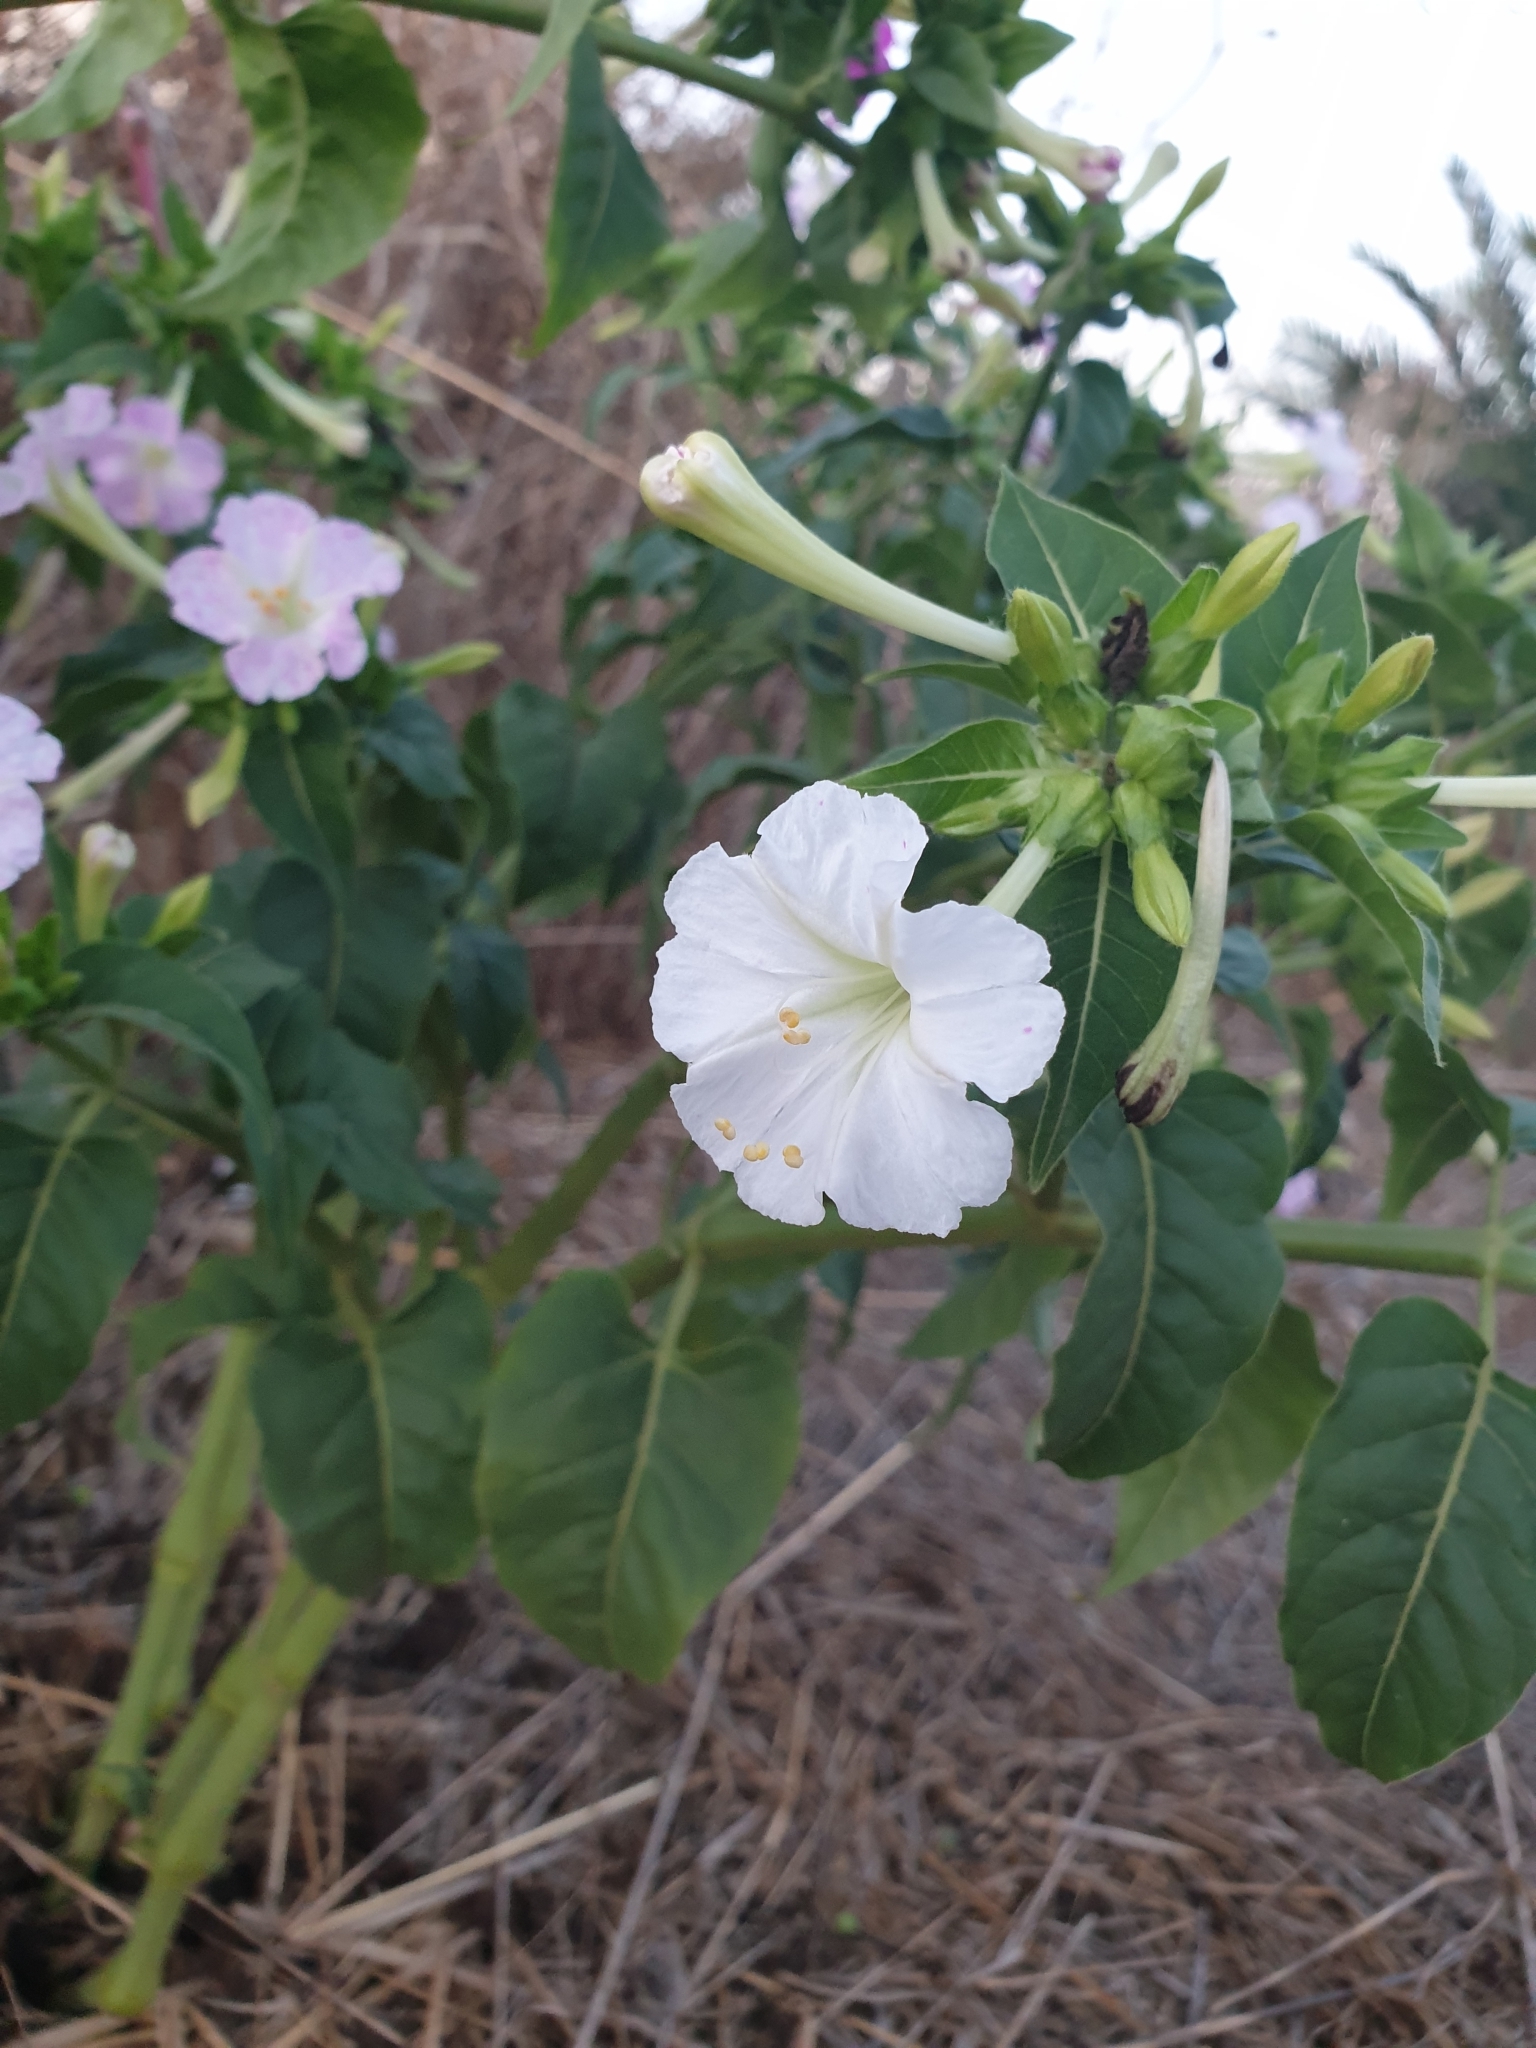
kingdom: Plantae
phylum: Tracheophyta
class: Magnoliopsida
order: Caryophyllales
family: Nyctaginaceae
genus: Mirabilis
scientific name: Mirabilis jalapa
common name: Marvel-of-peru
